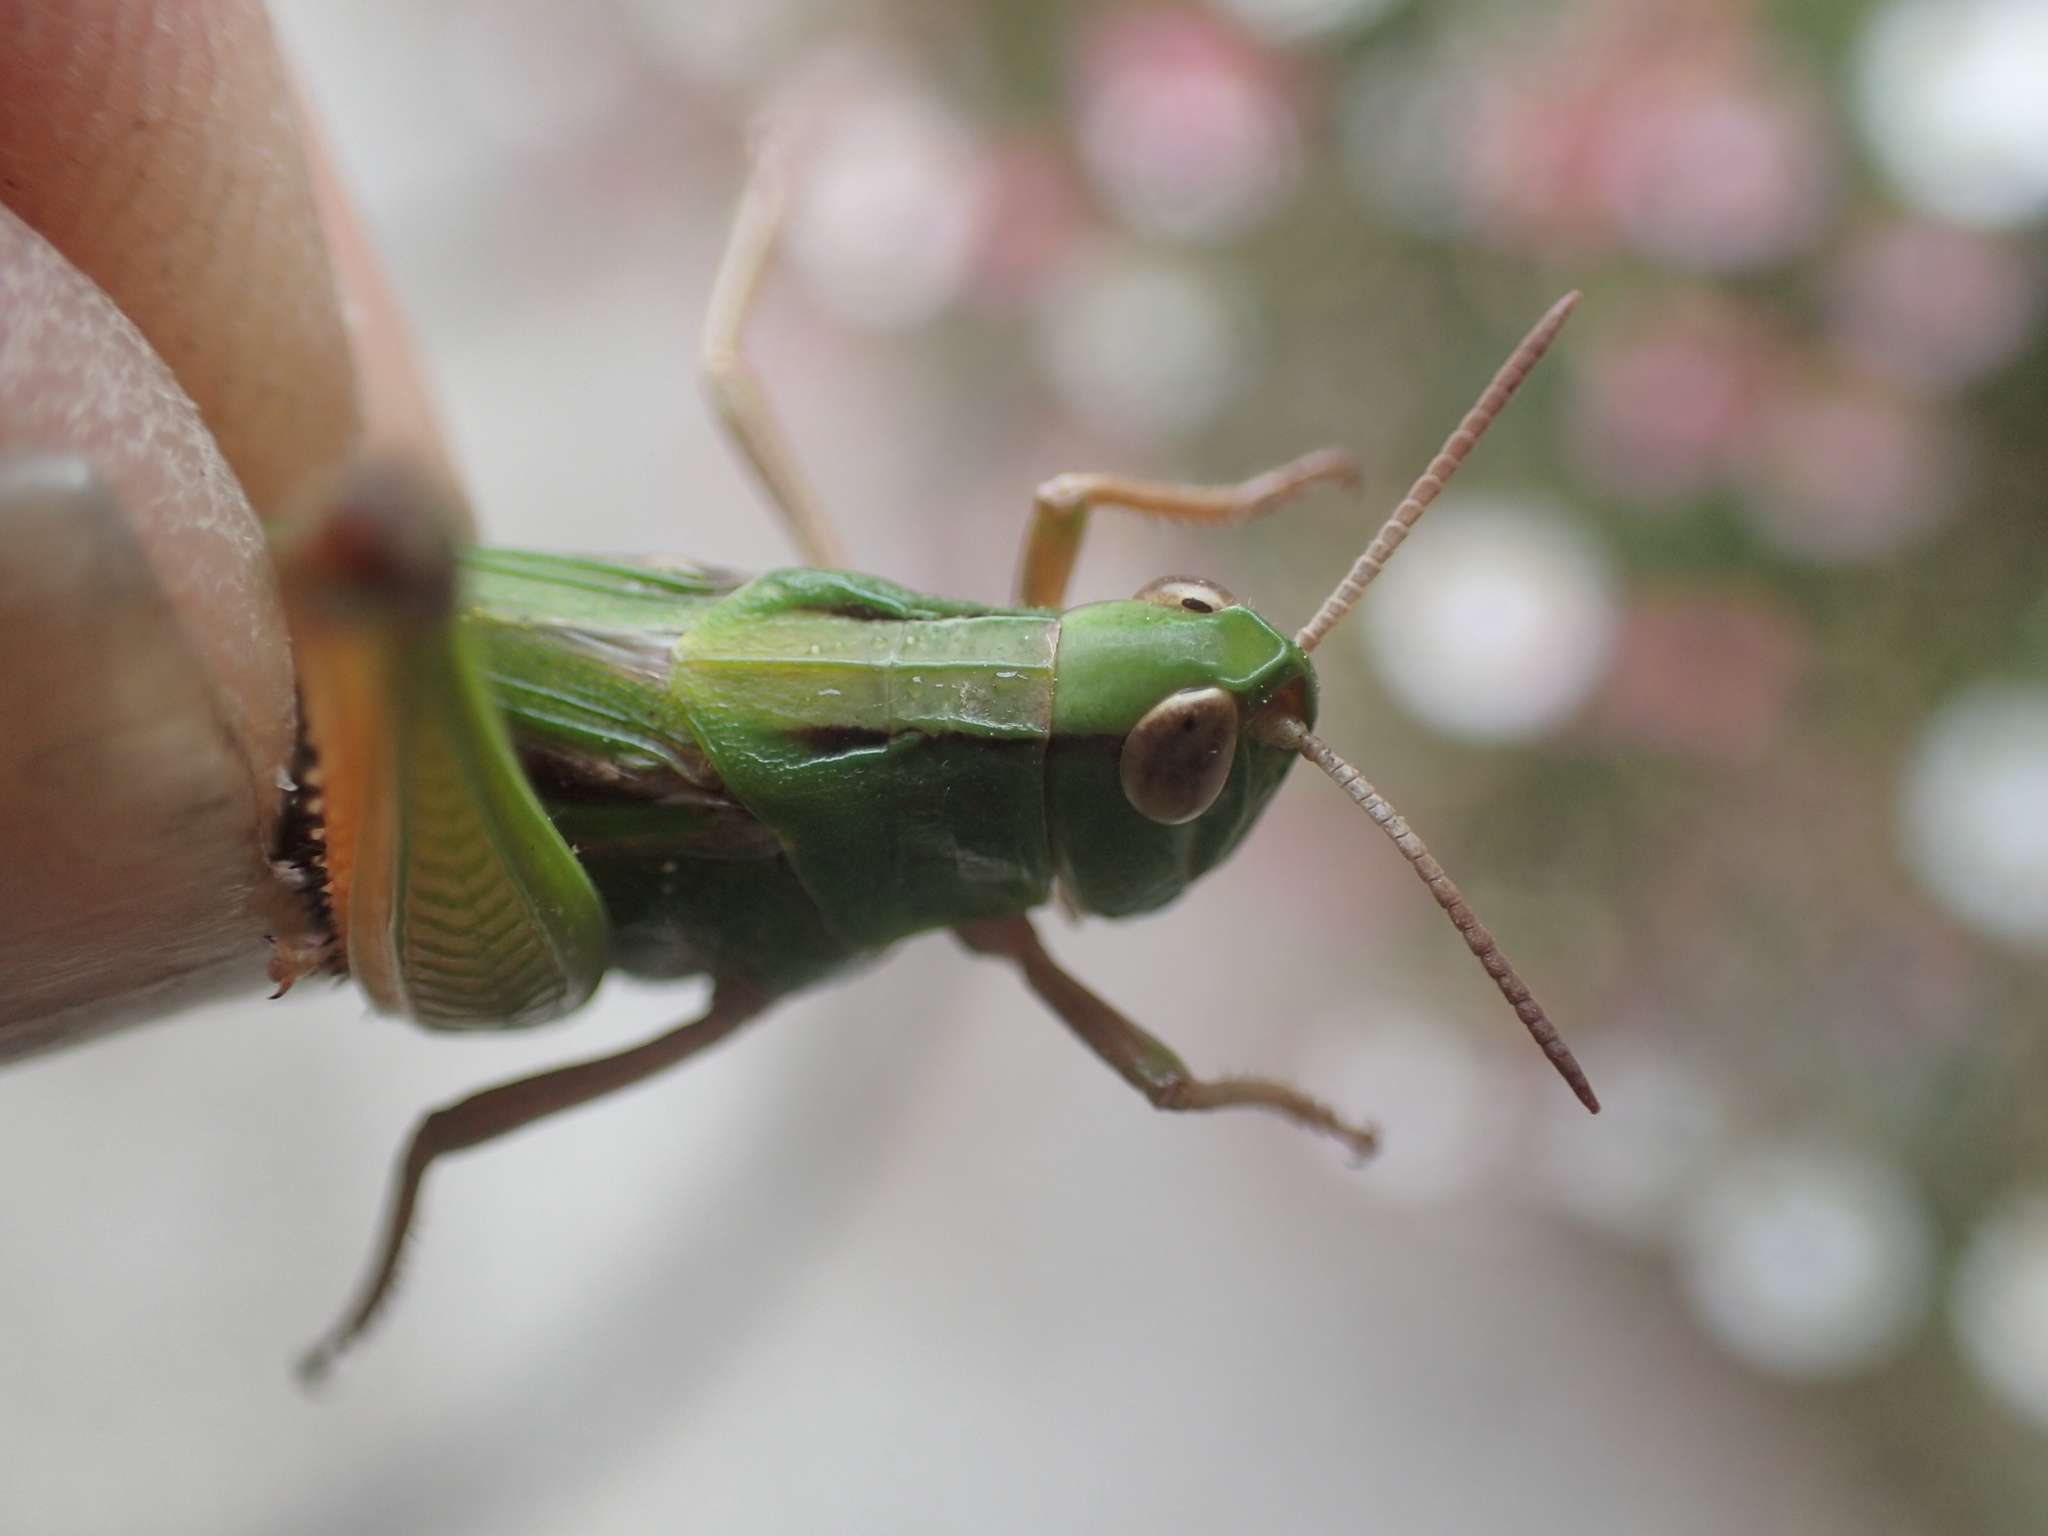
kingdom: Animalia
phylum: Arthropoda
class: Insecta
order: Orthoptera
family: Acrididae
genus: Schizobothrus
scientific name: Schizobothrus flavovittatus
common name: Disappearing grasshopper
